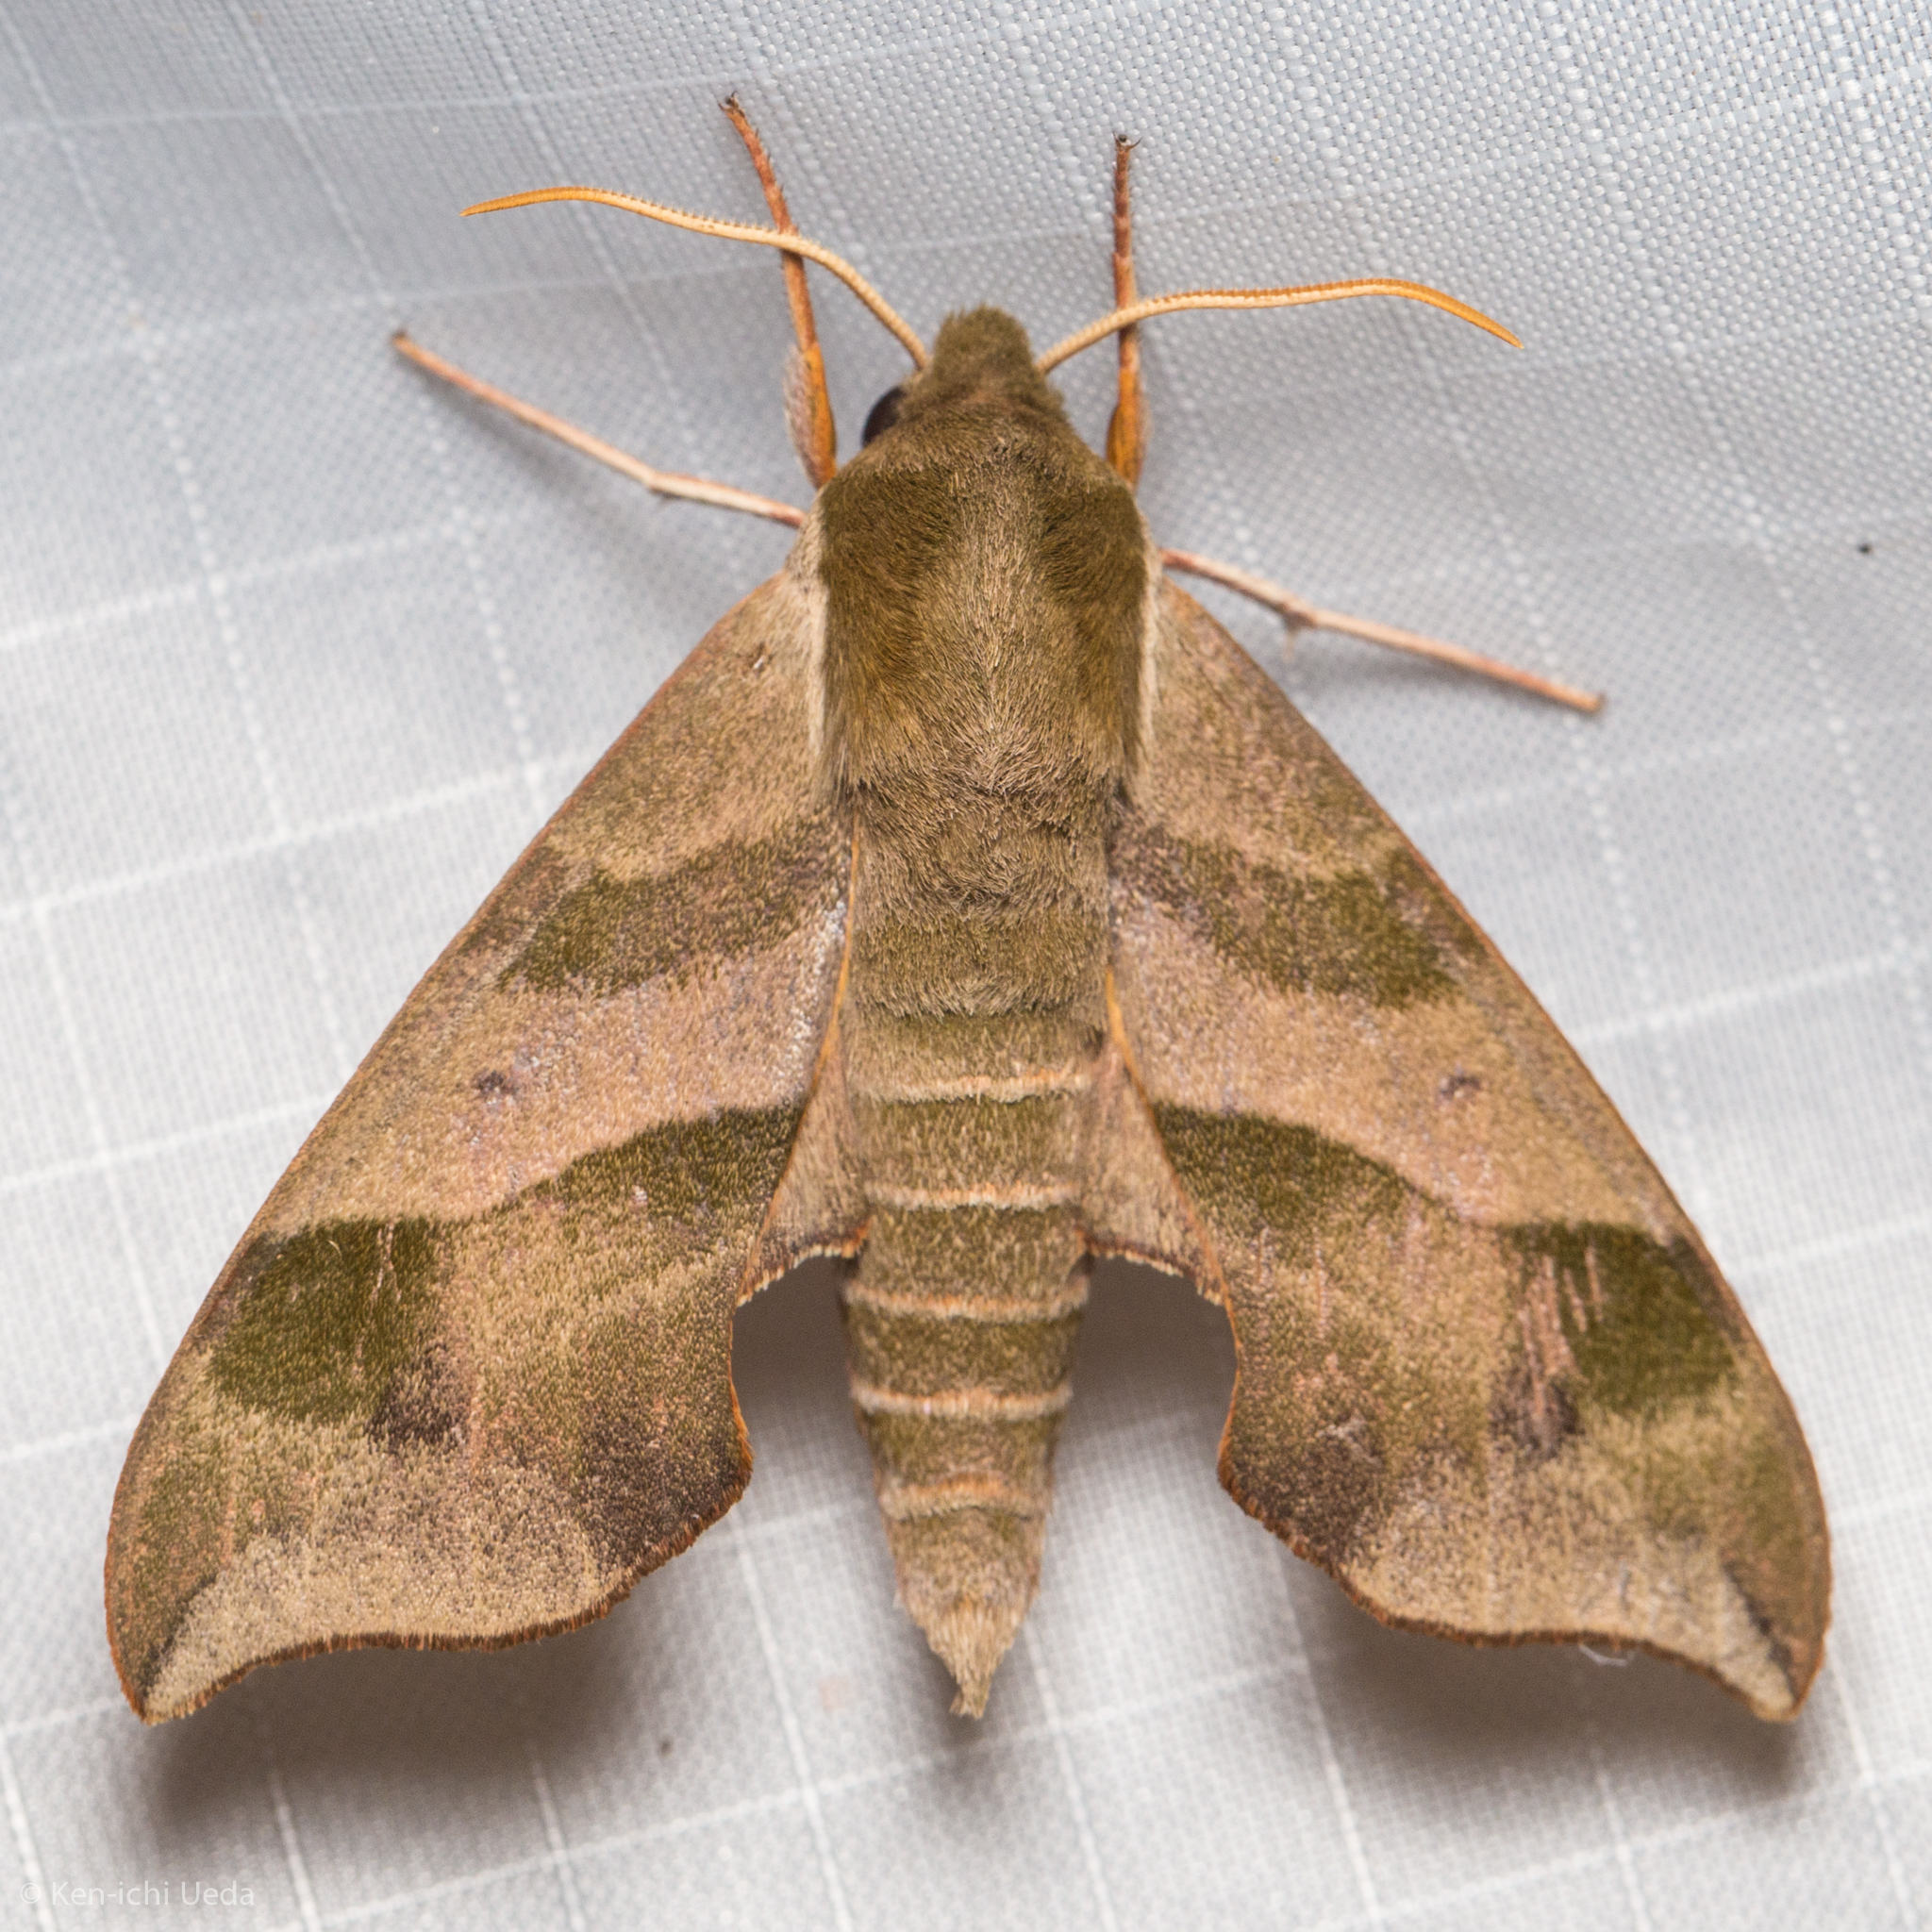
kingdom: Animalia
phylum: Arthropoda
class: Insecta
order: Lepidoptera
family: Sphingidae
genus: Darapsa
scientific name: Darapsa myron
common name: Hog sphinx
